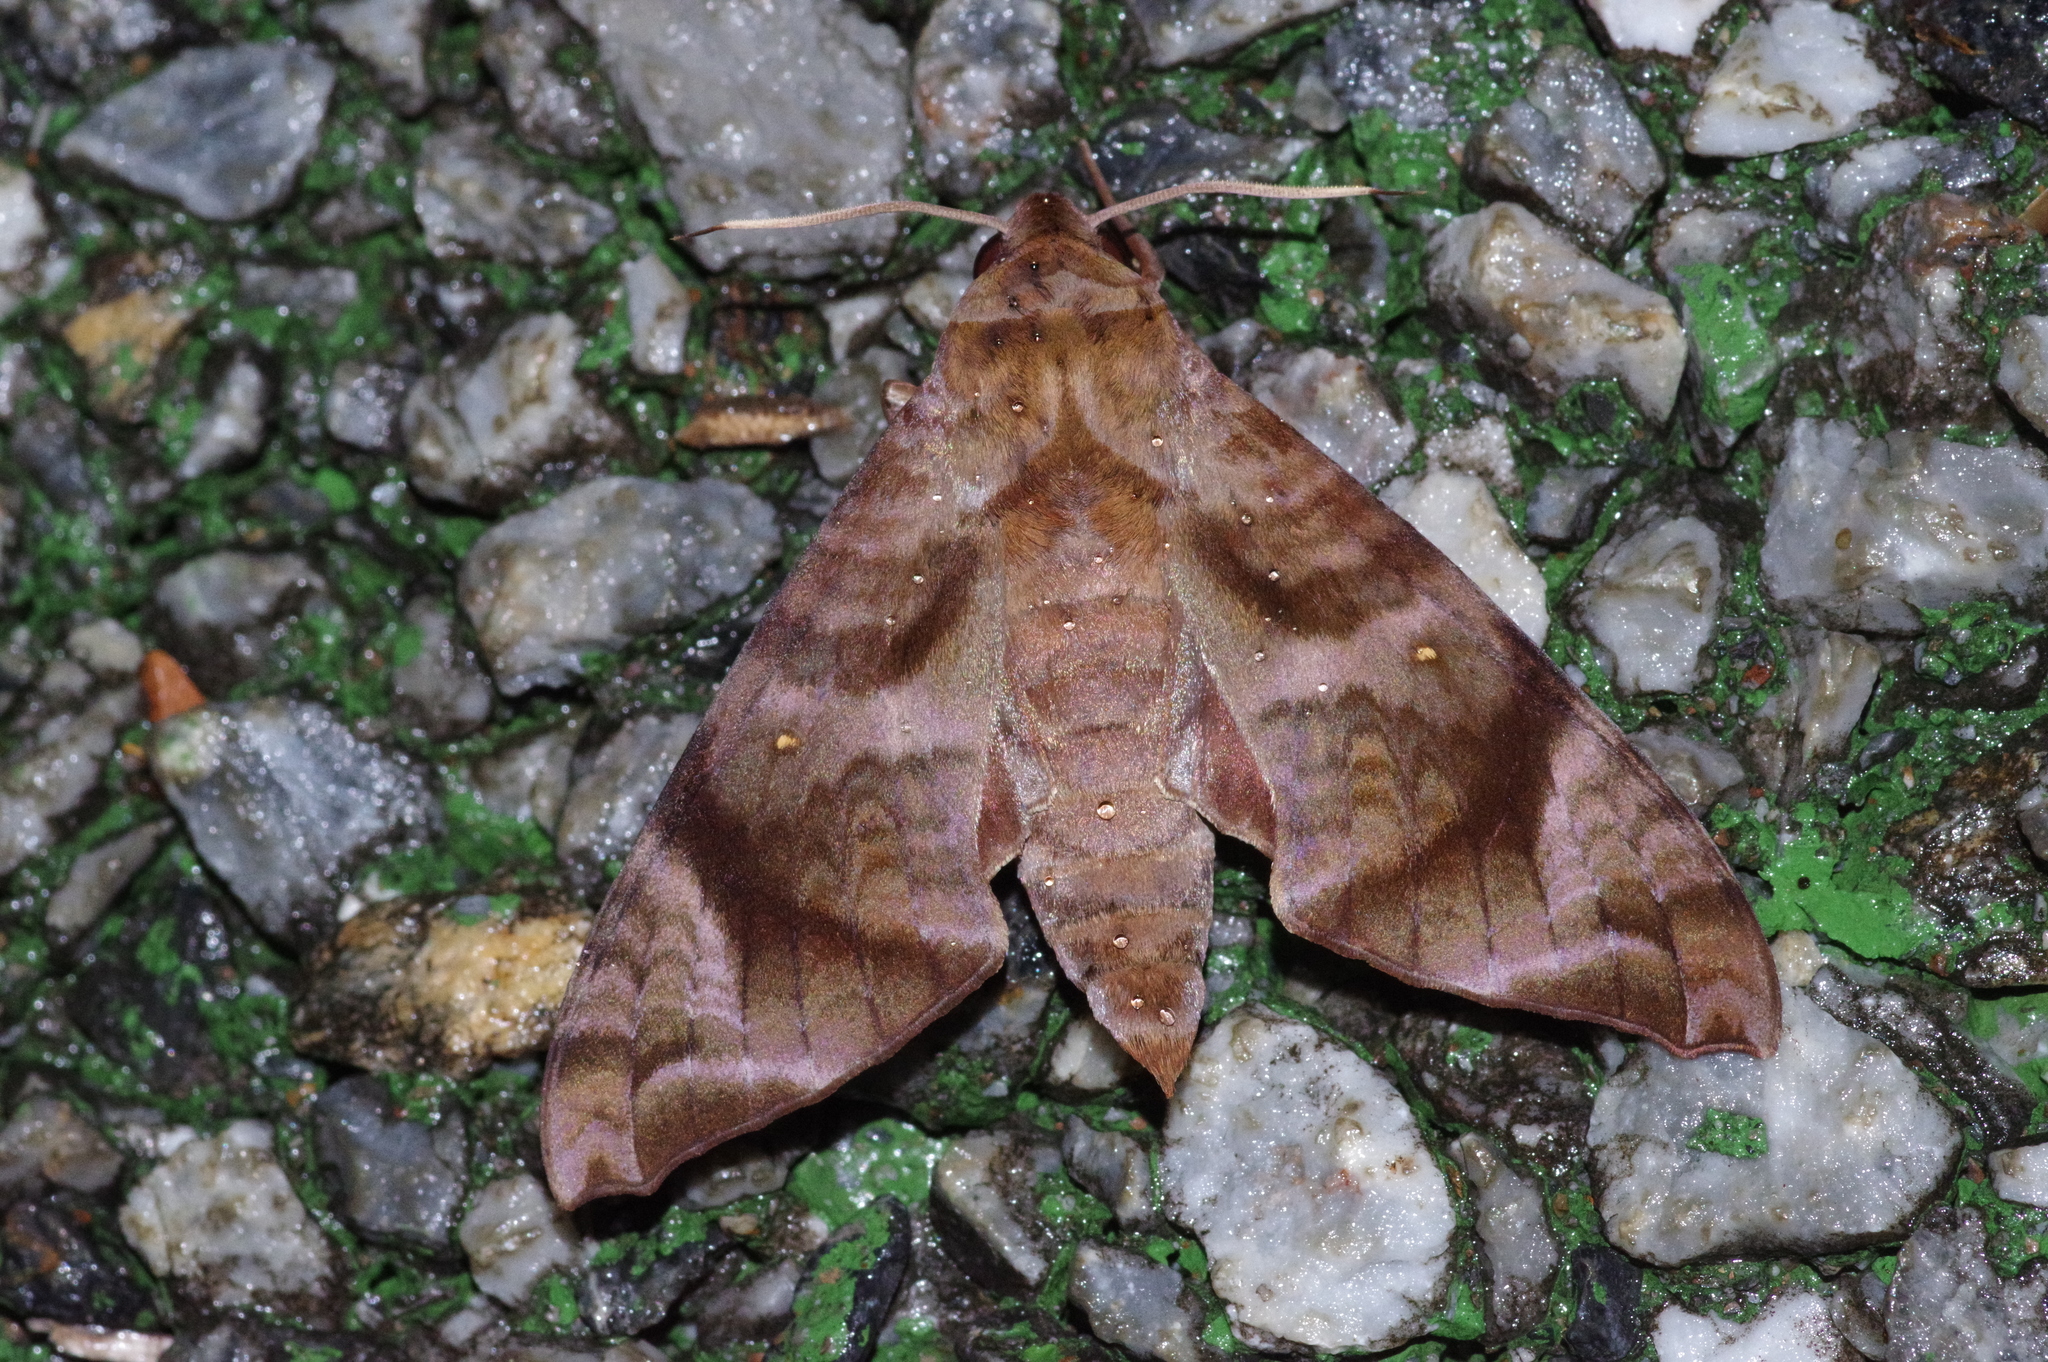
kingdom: Animalia
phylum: Arthropoda
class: Insecta
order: Lepidoptera
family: Sphingidae
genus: Acosmeryx
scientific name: Acosmeryx castanea
